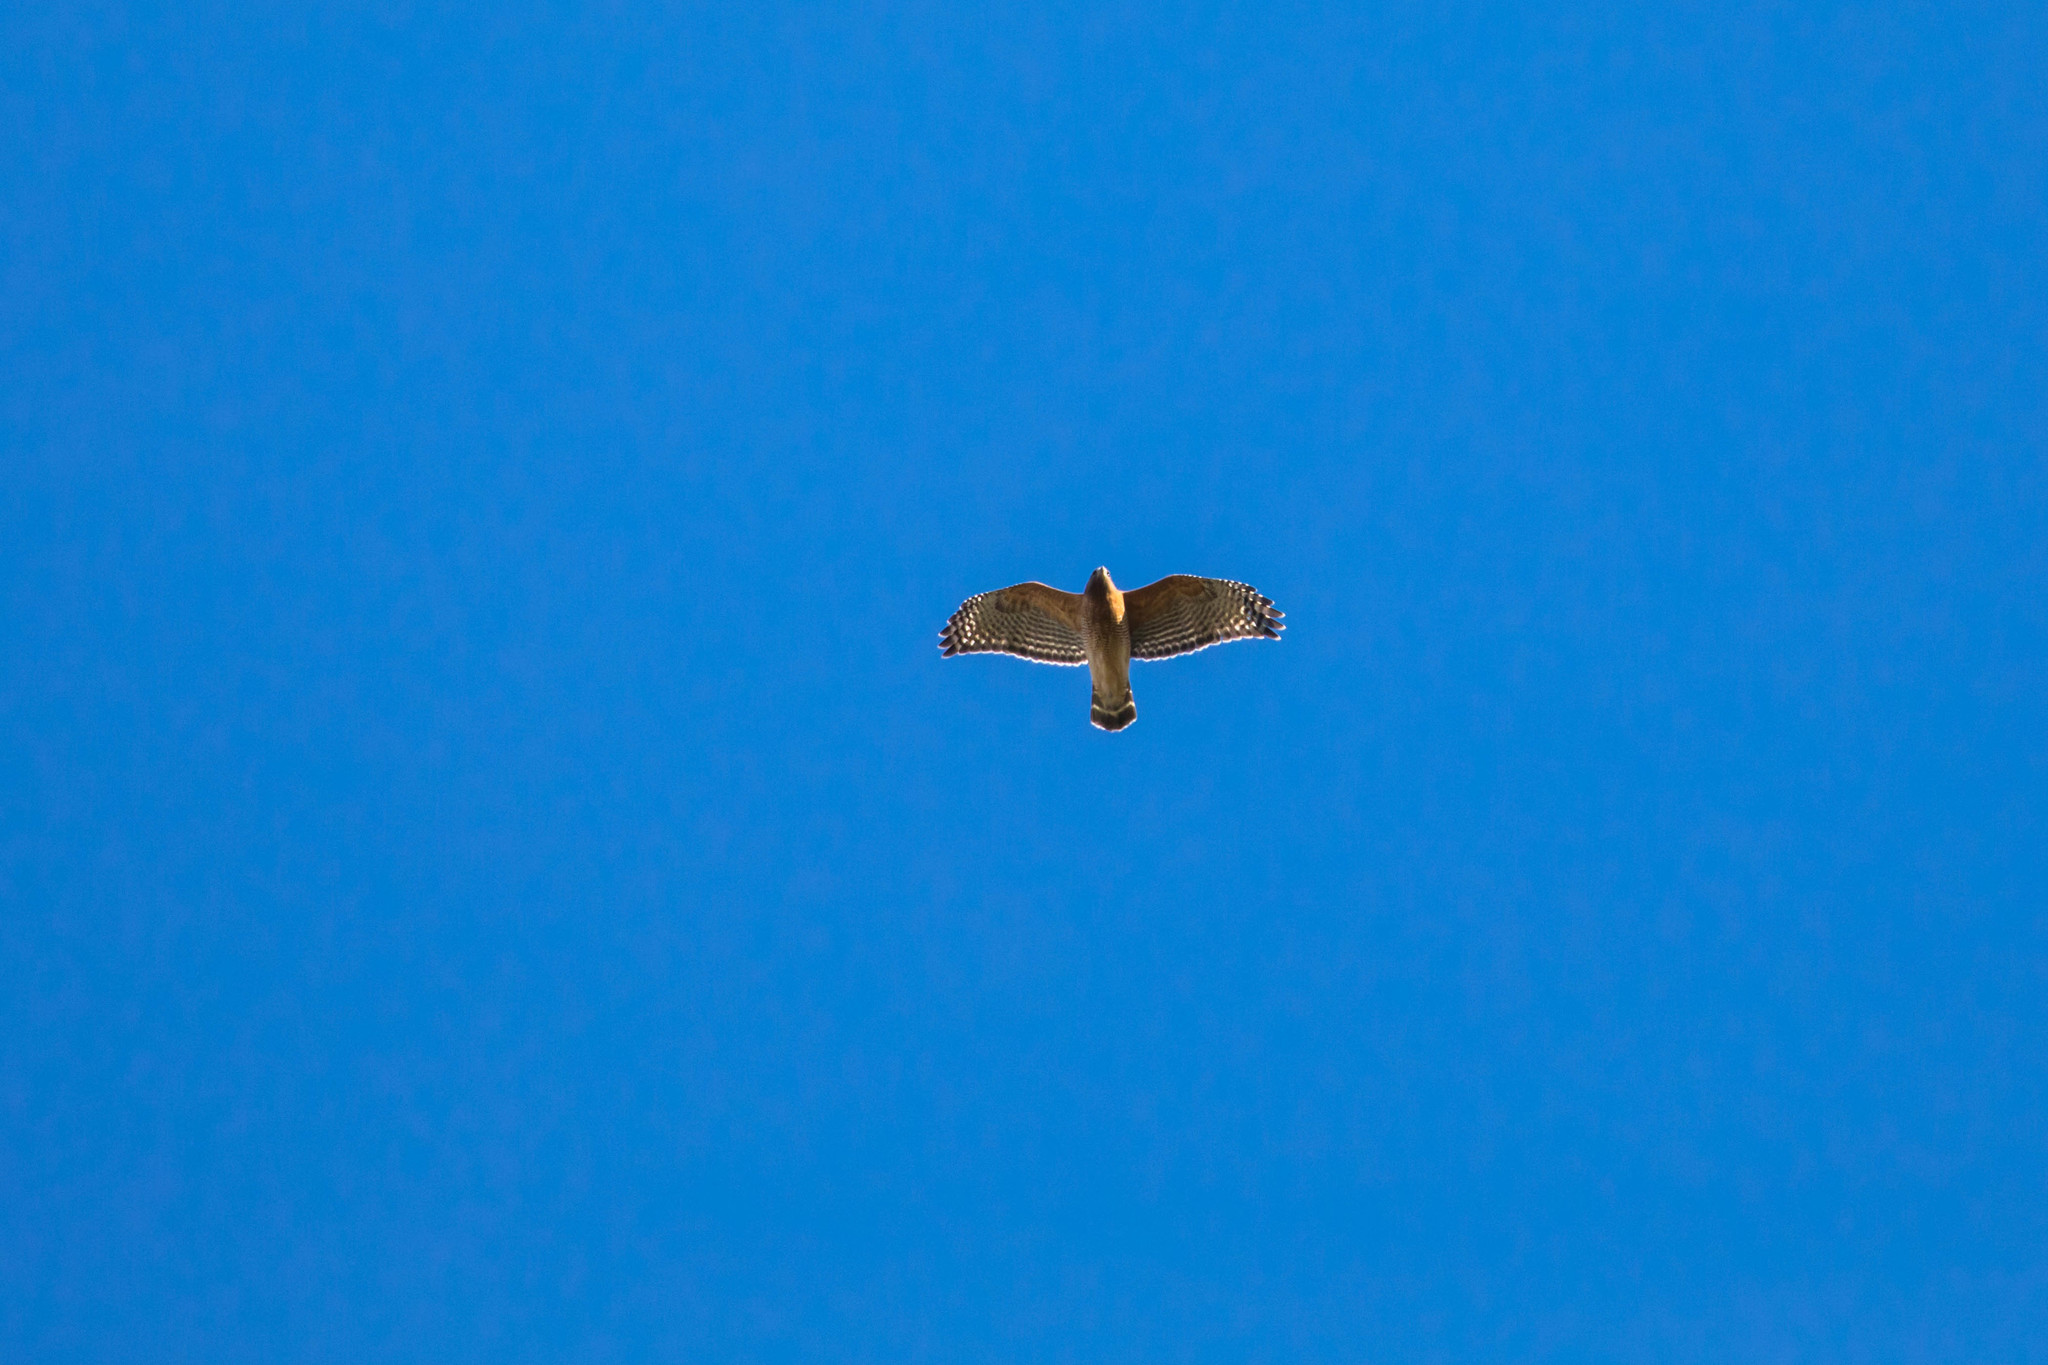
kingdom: Animalia
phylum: Chordata
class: Aves
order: Accipitriformes
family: Accipitridae
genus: Buteo
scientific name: Buteo lineatus
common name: Red-shouldered hawk
